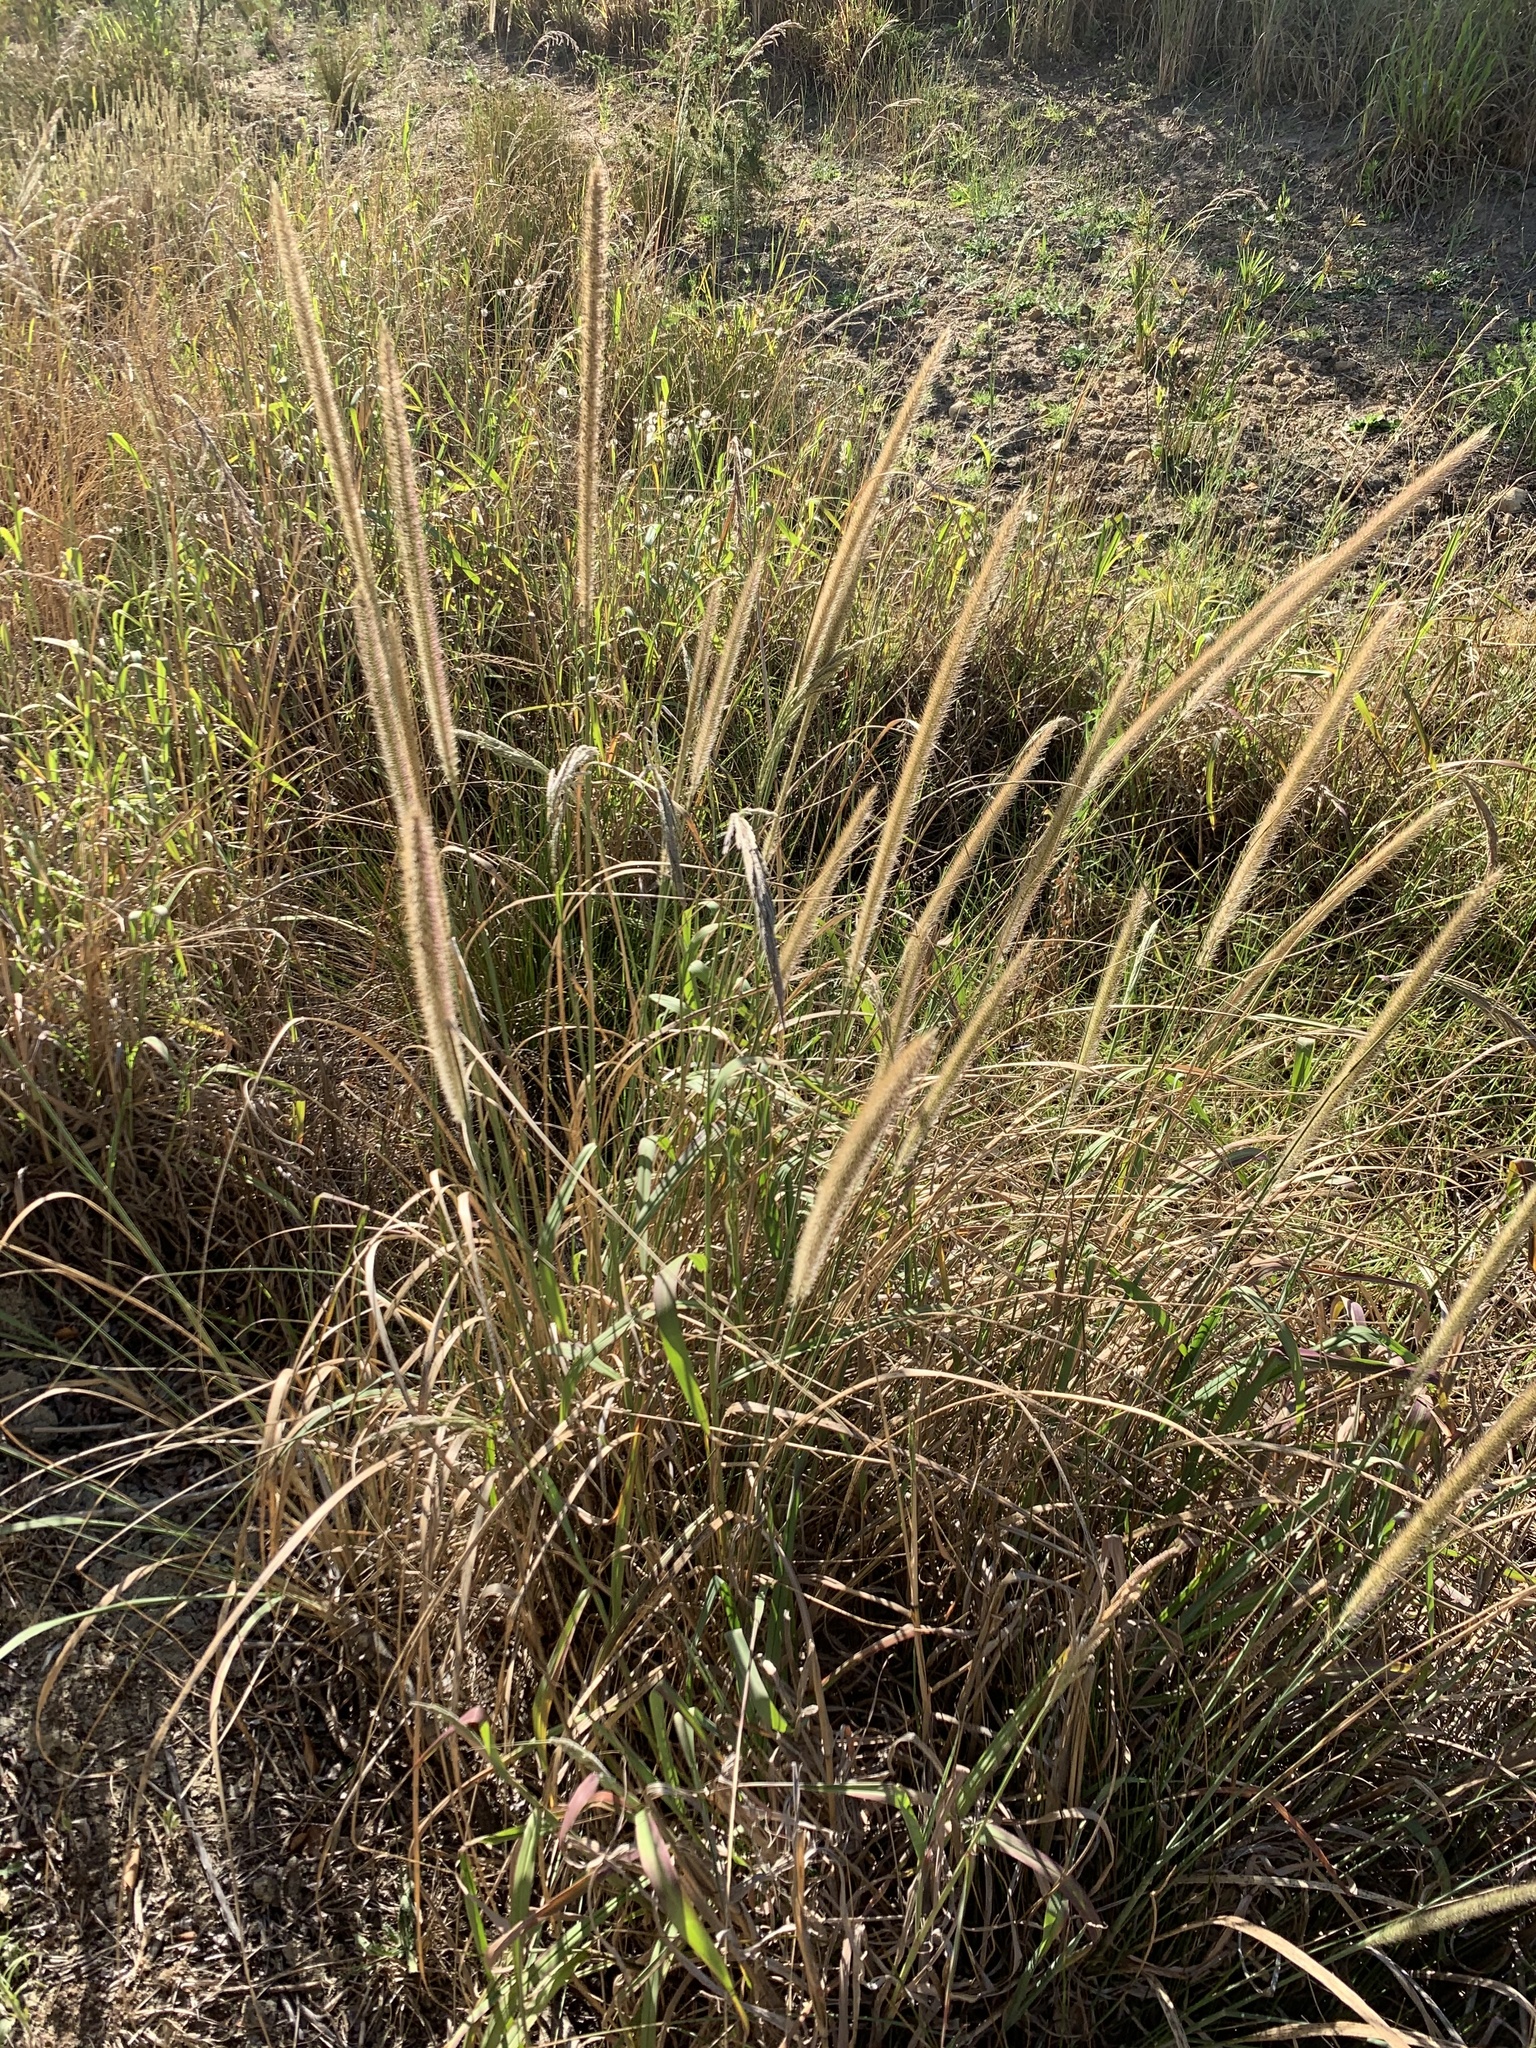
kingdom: Plantae
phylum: Tracheophyta
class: Liliopsida
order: Poales
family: Poaceae
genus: Cenchrus
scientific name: Cenchrus caudatus
